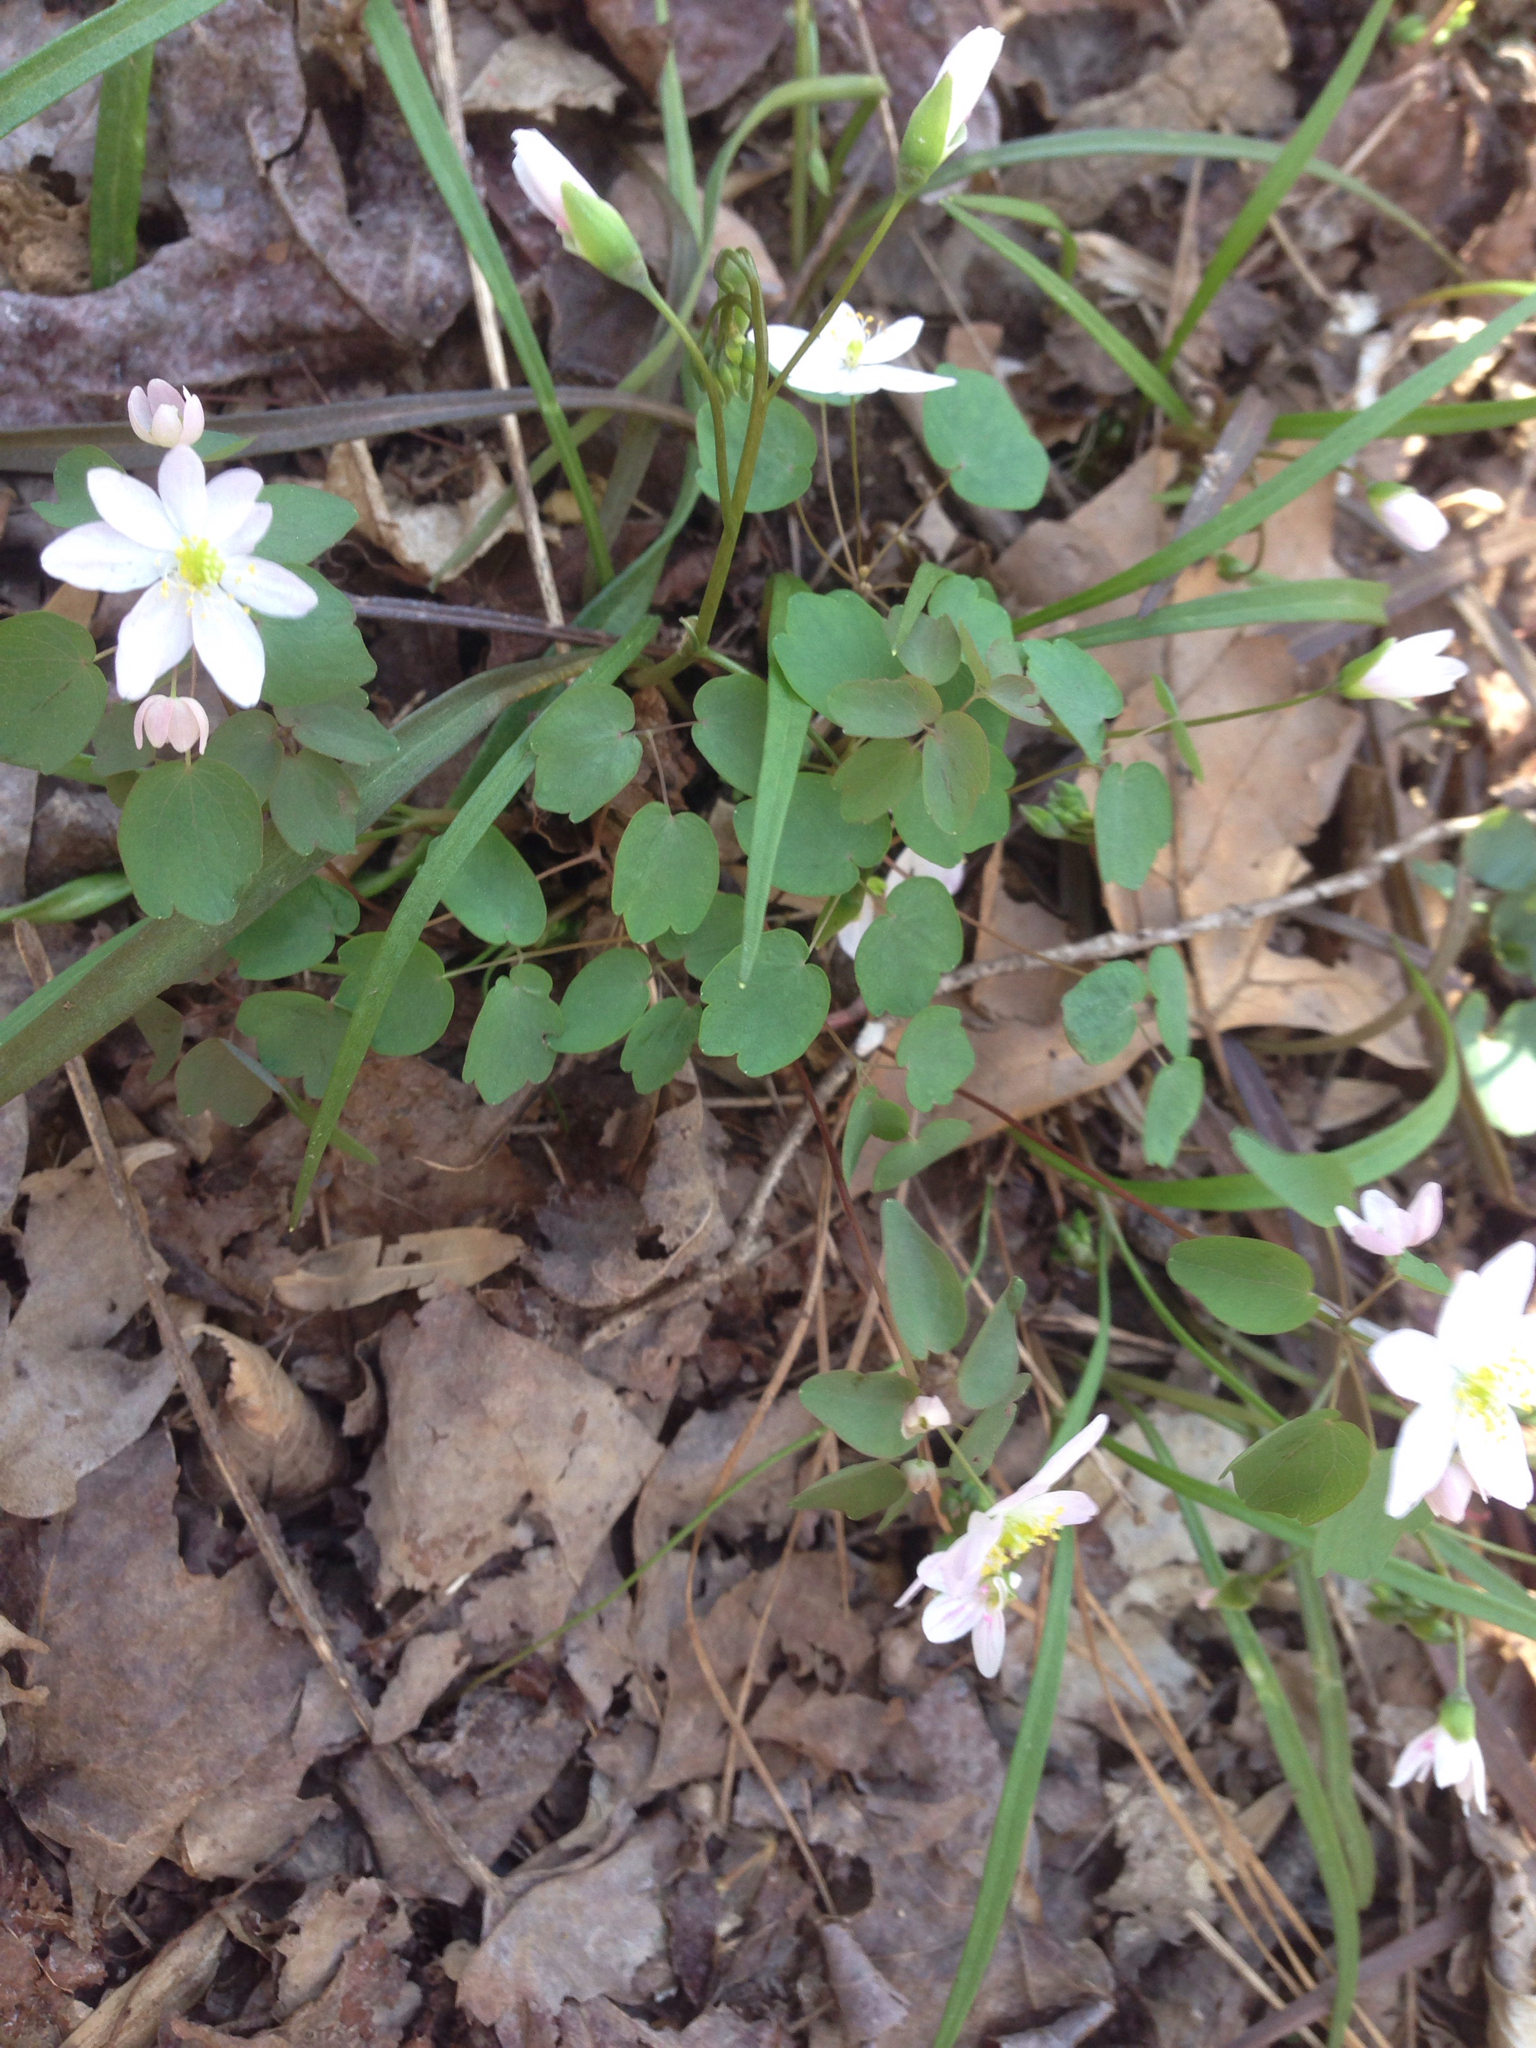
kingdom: Plantae
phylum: Tracheophyta
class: Magnoliopsida
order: Ranunculales
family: Ranunculaceae
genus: Thalictrum
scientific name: Thalictrum thalictroides
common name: Rue-anemone
